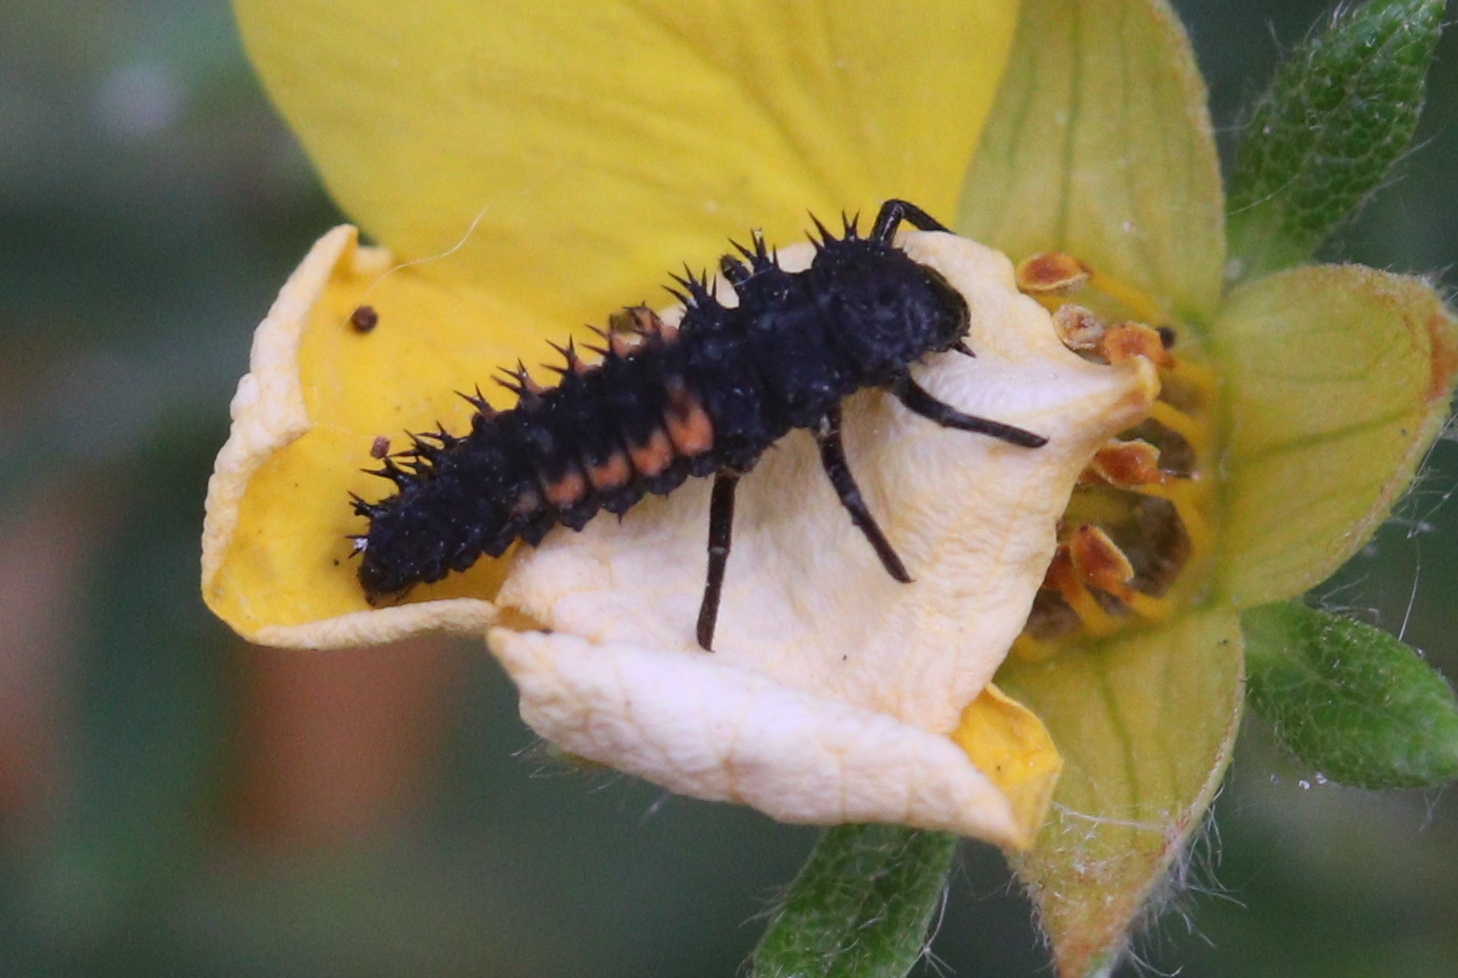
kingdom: Animalia
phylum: Arthropoda
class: Insecta
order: Coleoptera
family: Coccinellidae
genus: Harmonia
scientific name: Harmonia axyridis
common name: Harlequin ladybird
